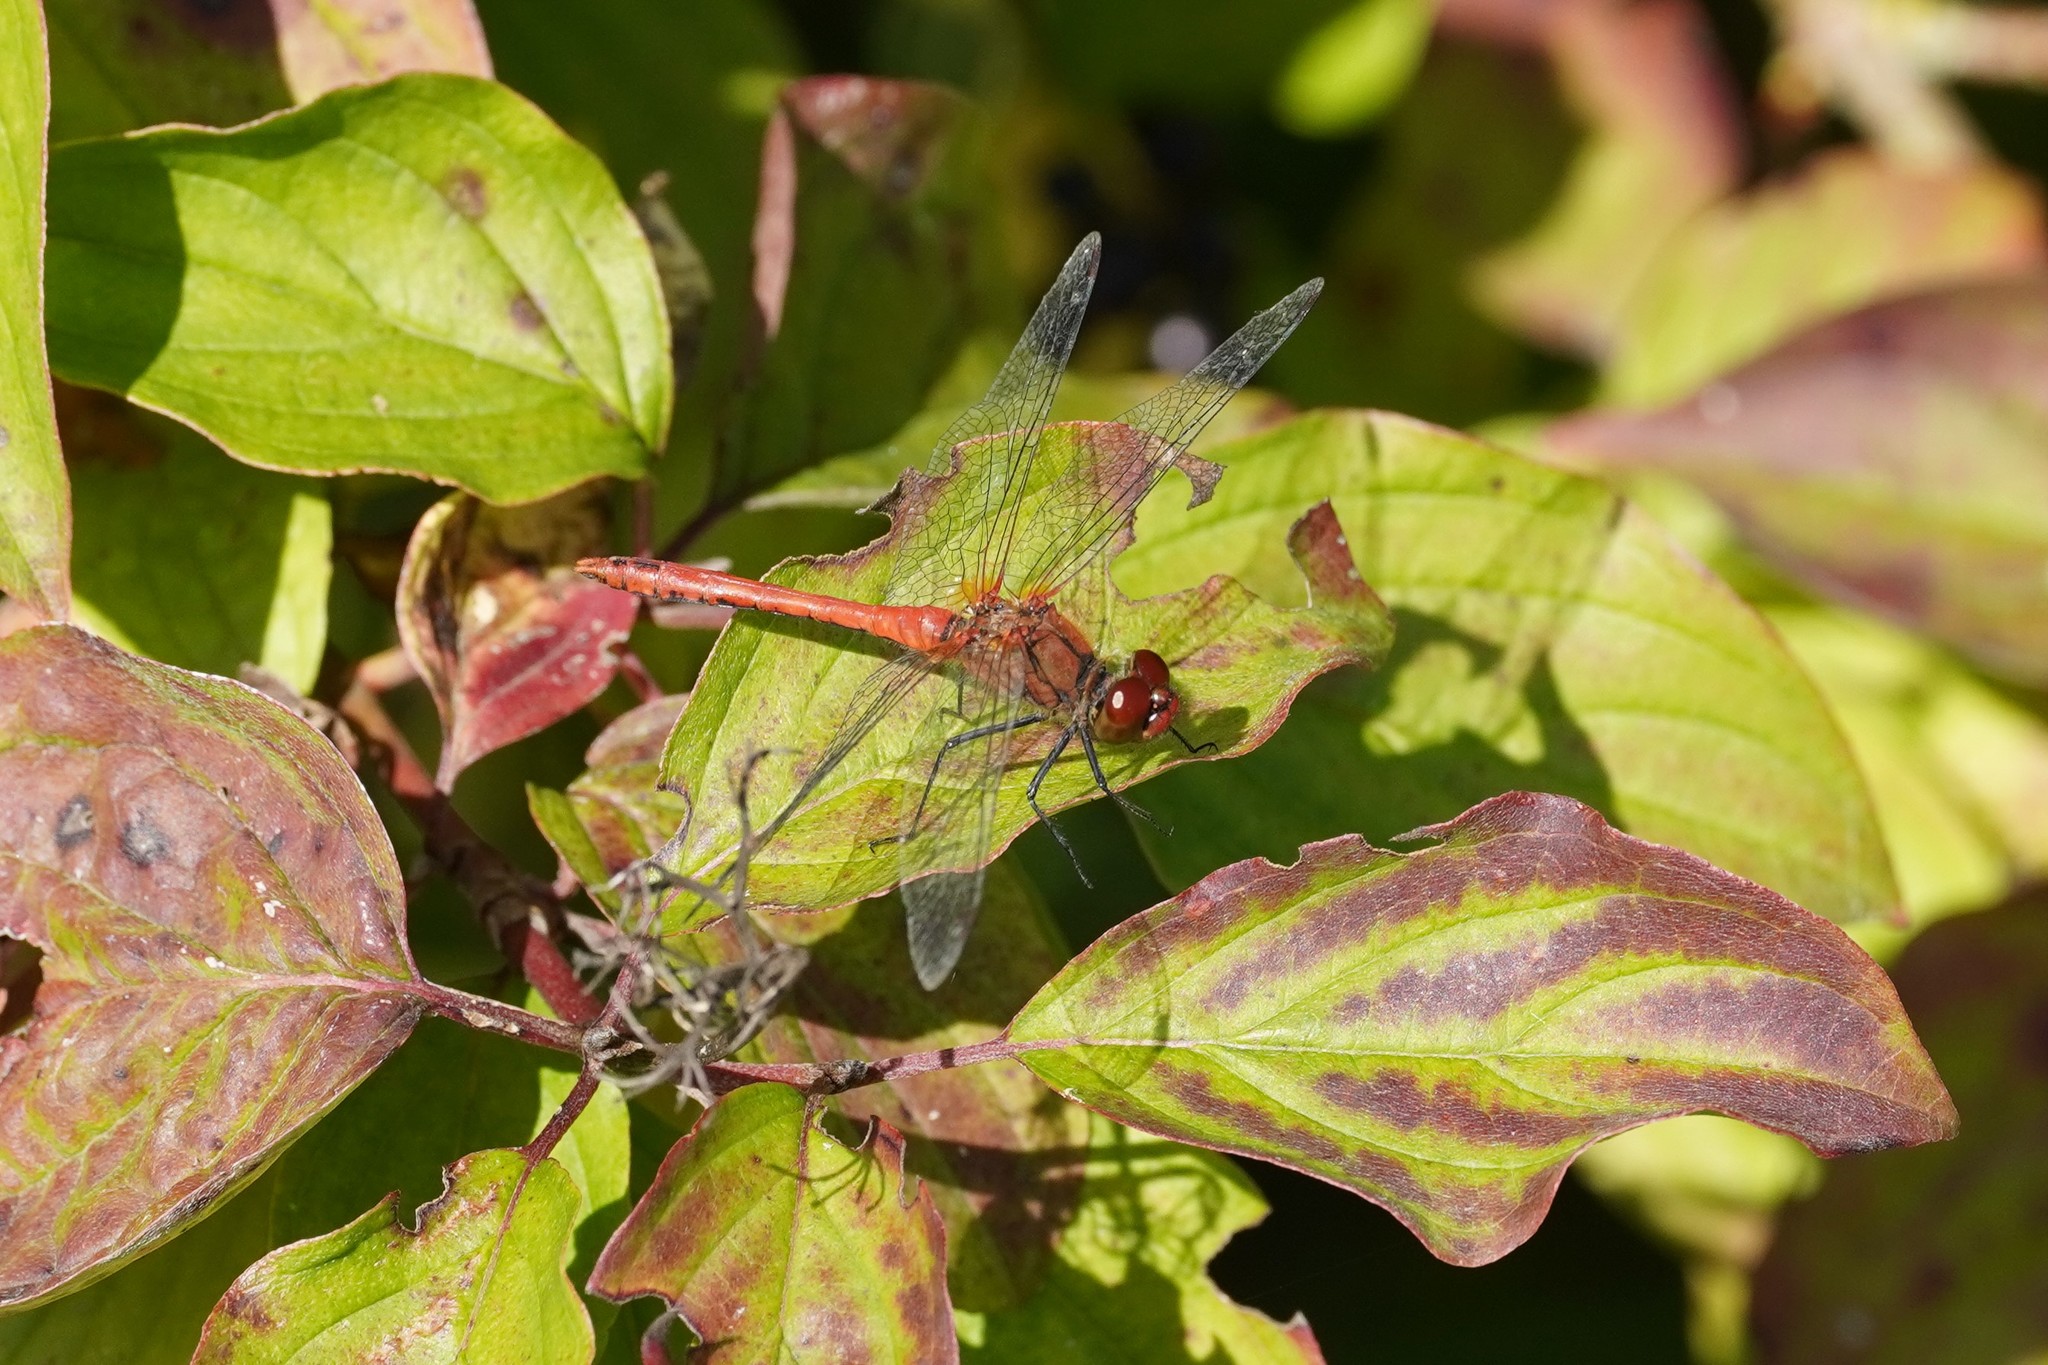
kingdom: Animalia
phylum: Arthropoda
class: Insecta
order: Odonata
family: Libellulidae
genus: Sympetrum
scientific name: Sympetrum sanguineum
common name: Ruddy darter
